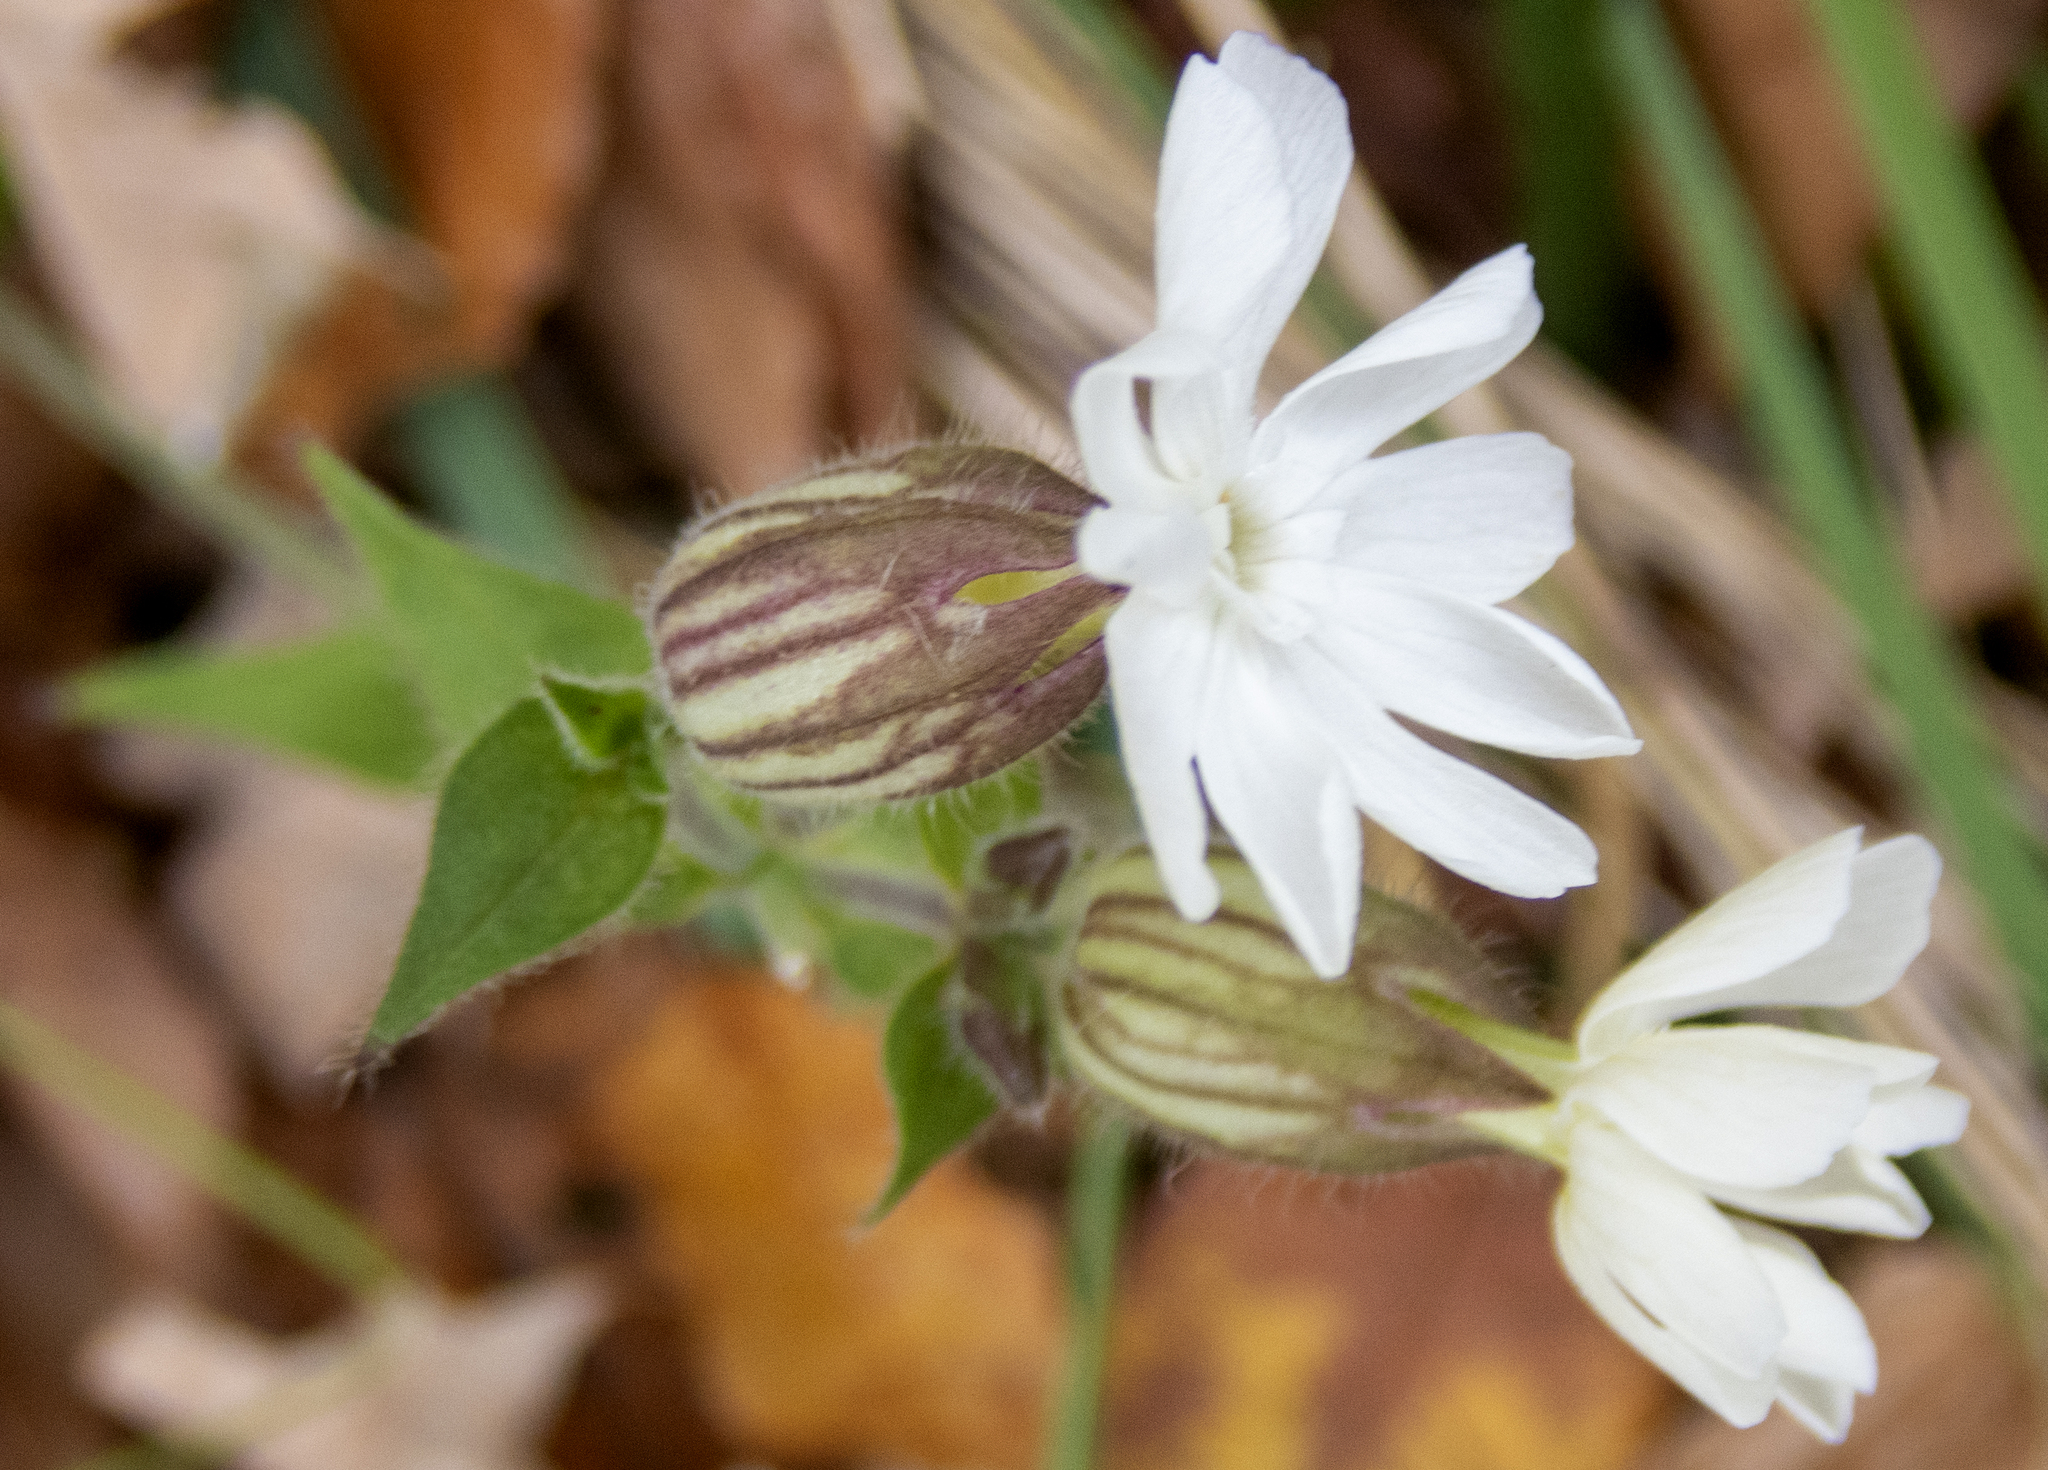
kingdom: Plantae
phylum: Tracheophyta
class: Magnoliopsida
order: Caryophyllales
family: Caryophyllaceae
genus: Silene
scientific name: Silene latifolia
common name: White campion
